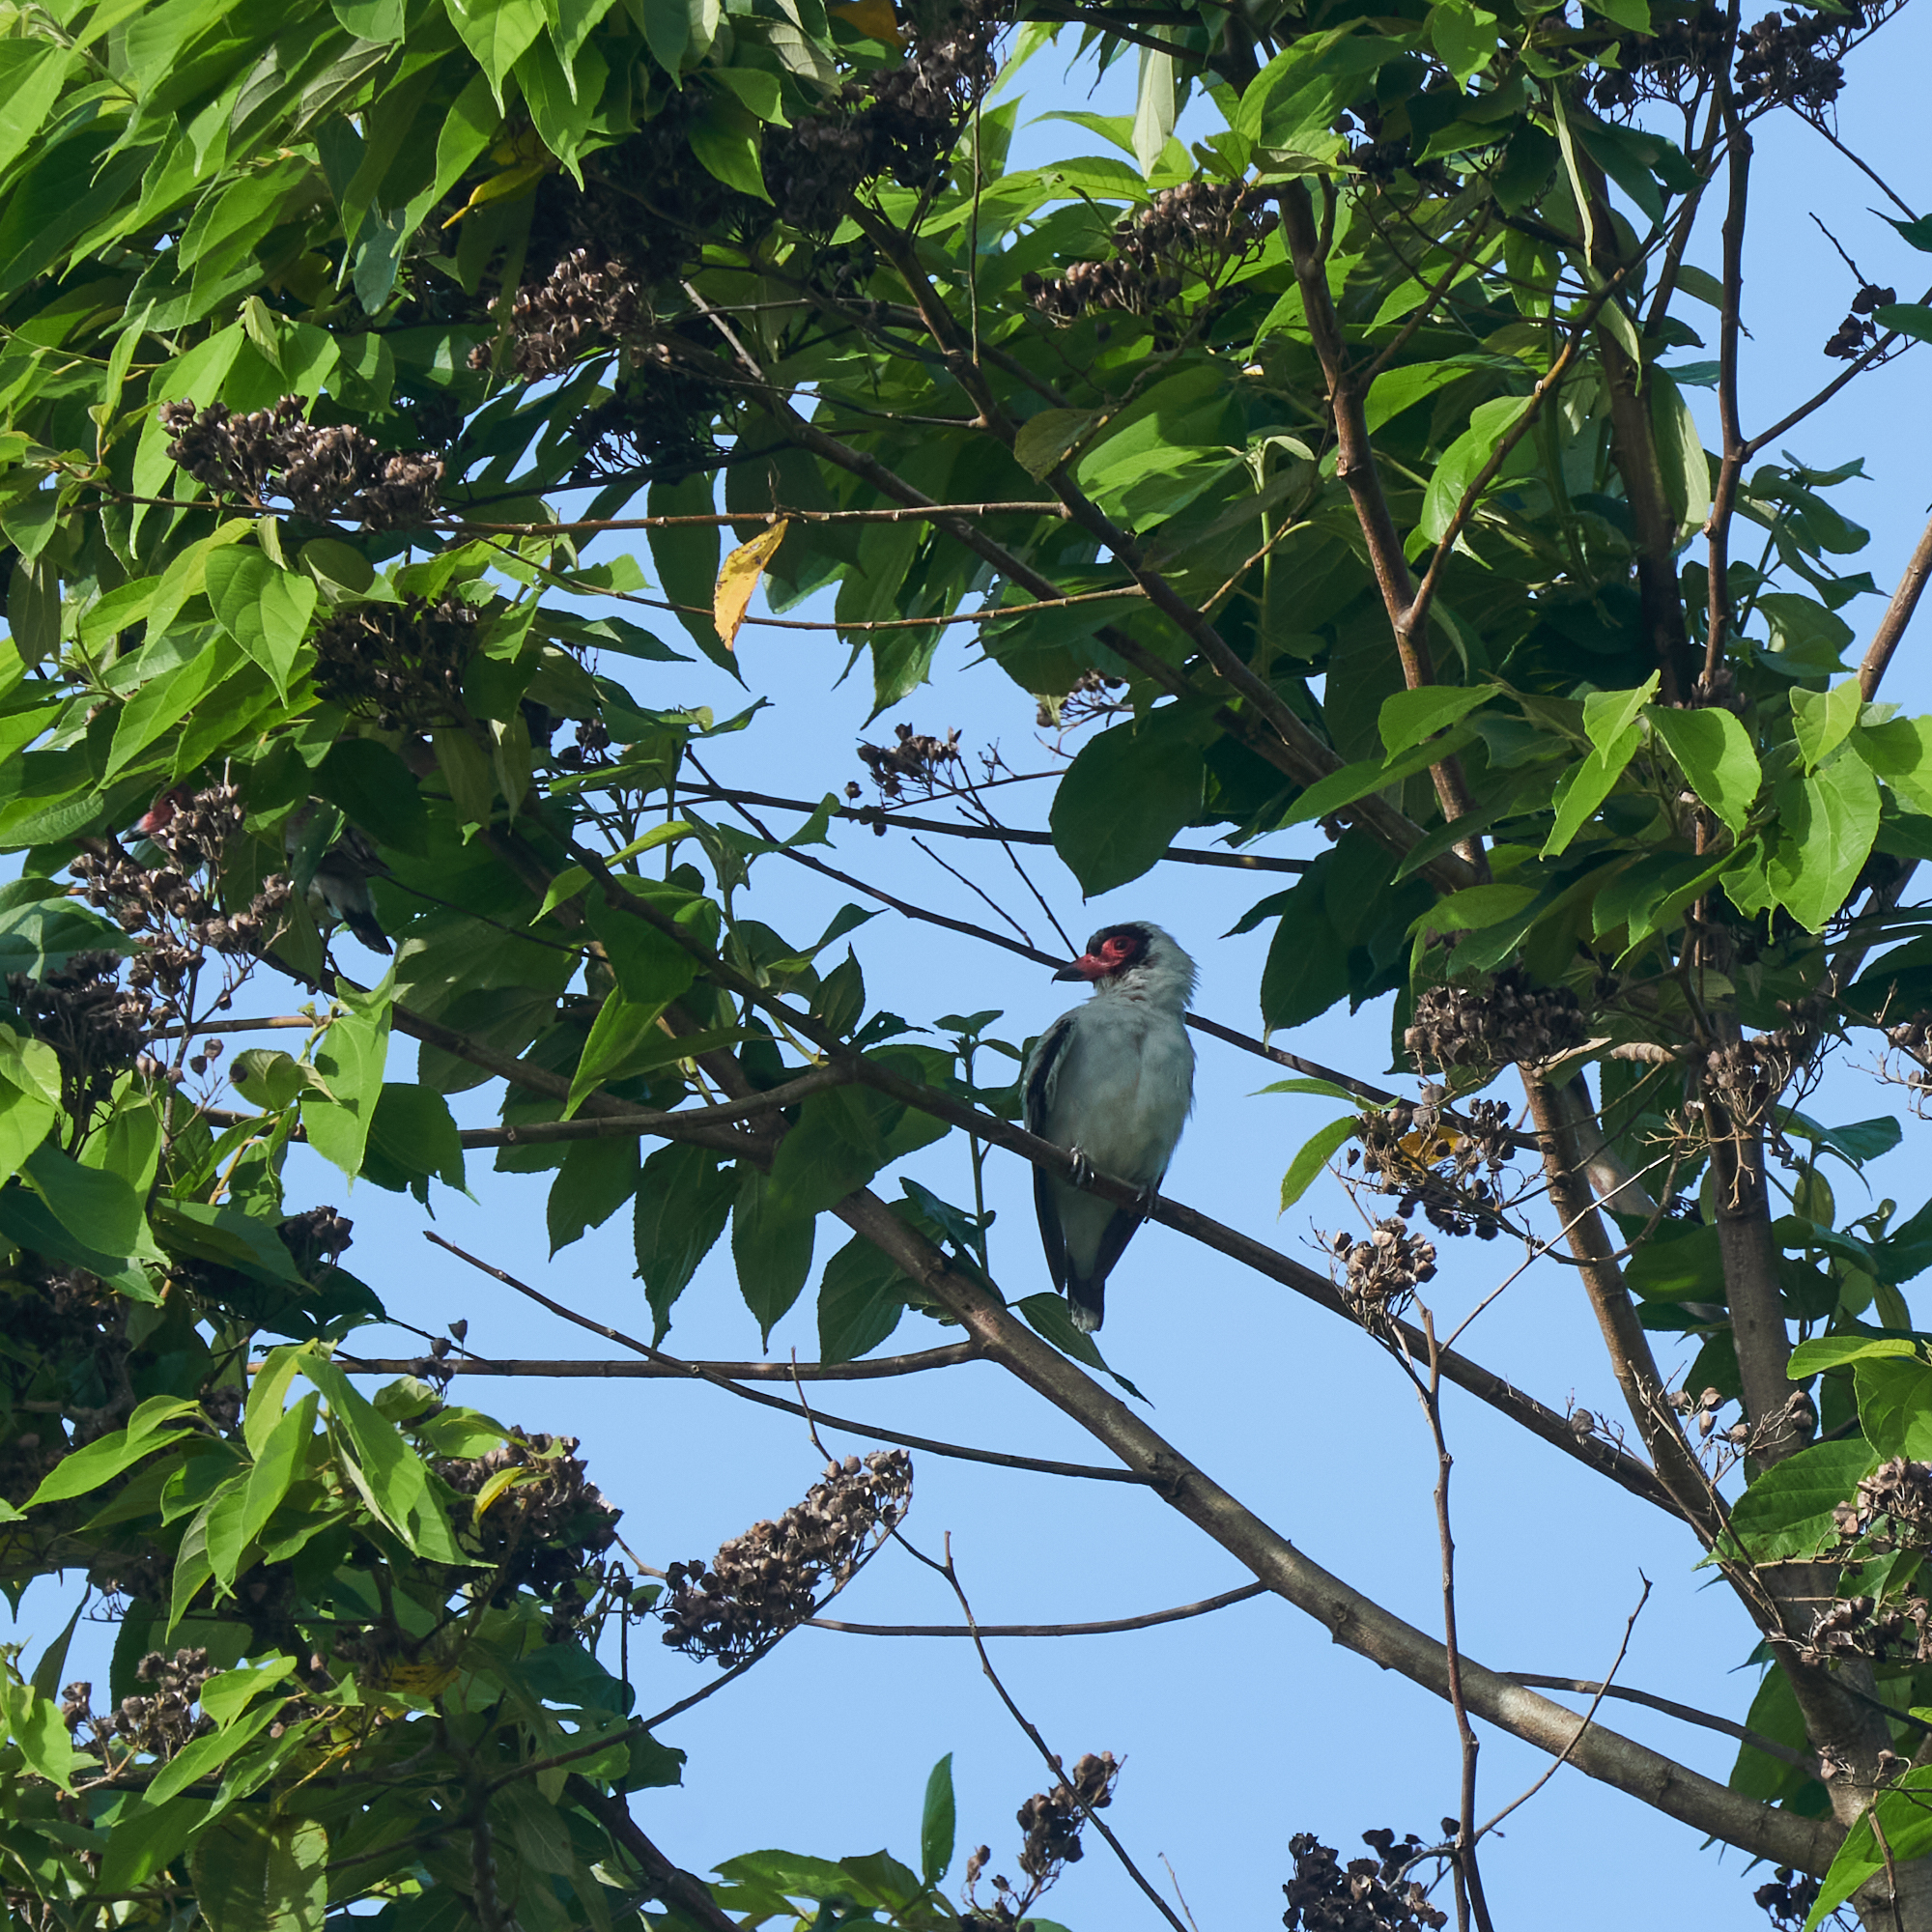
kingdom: Animalia
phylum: Chordata
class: Aves
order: Passeriformes
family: Cotingidae
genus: Tityra
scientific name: Tityra semifasciata
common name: Masked tityra
